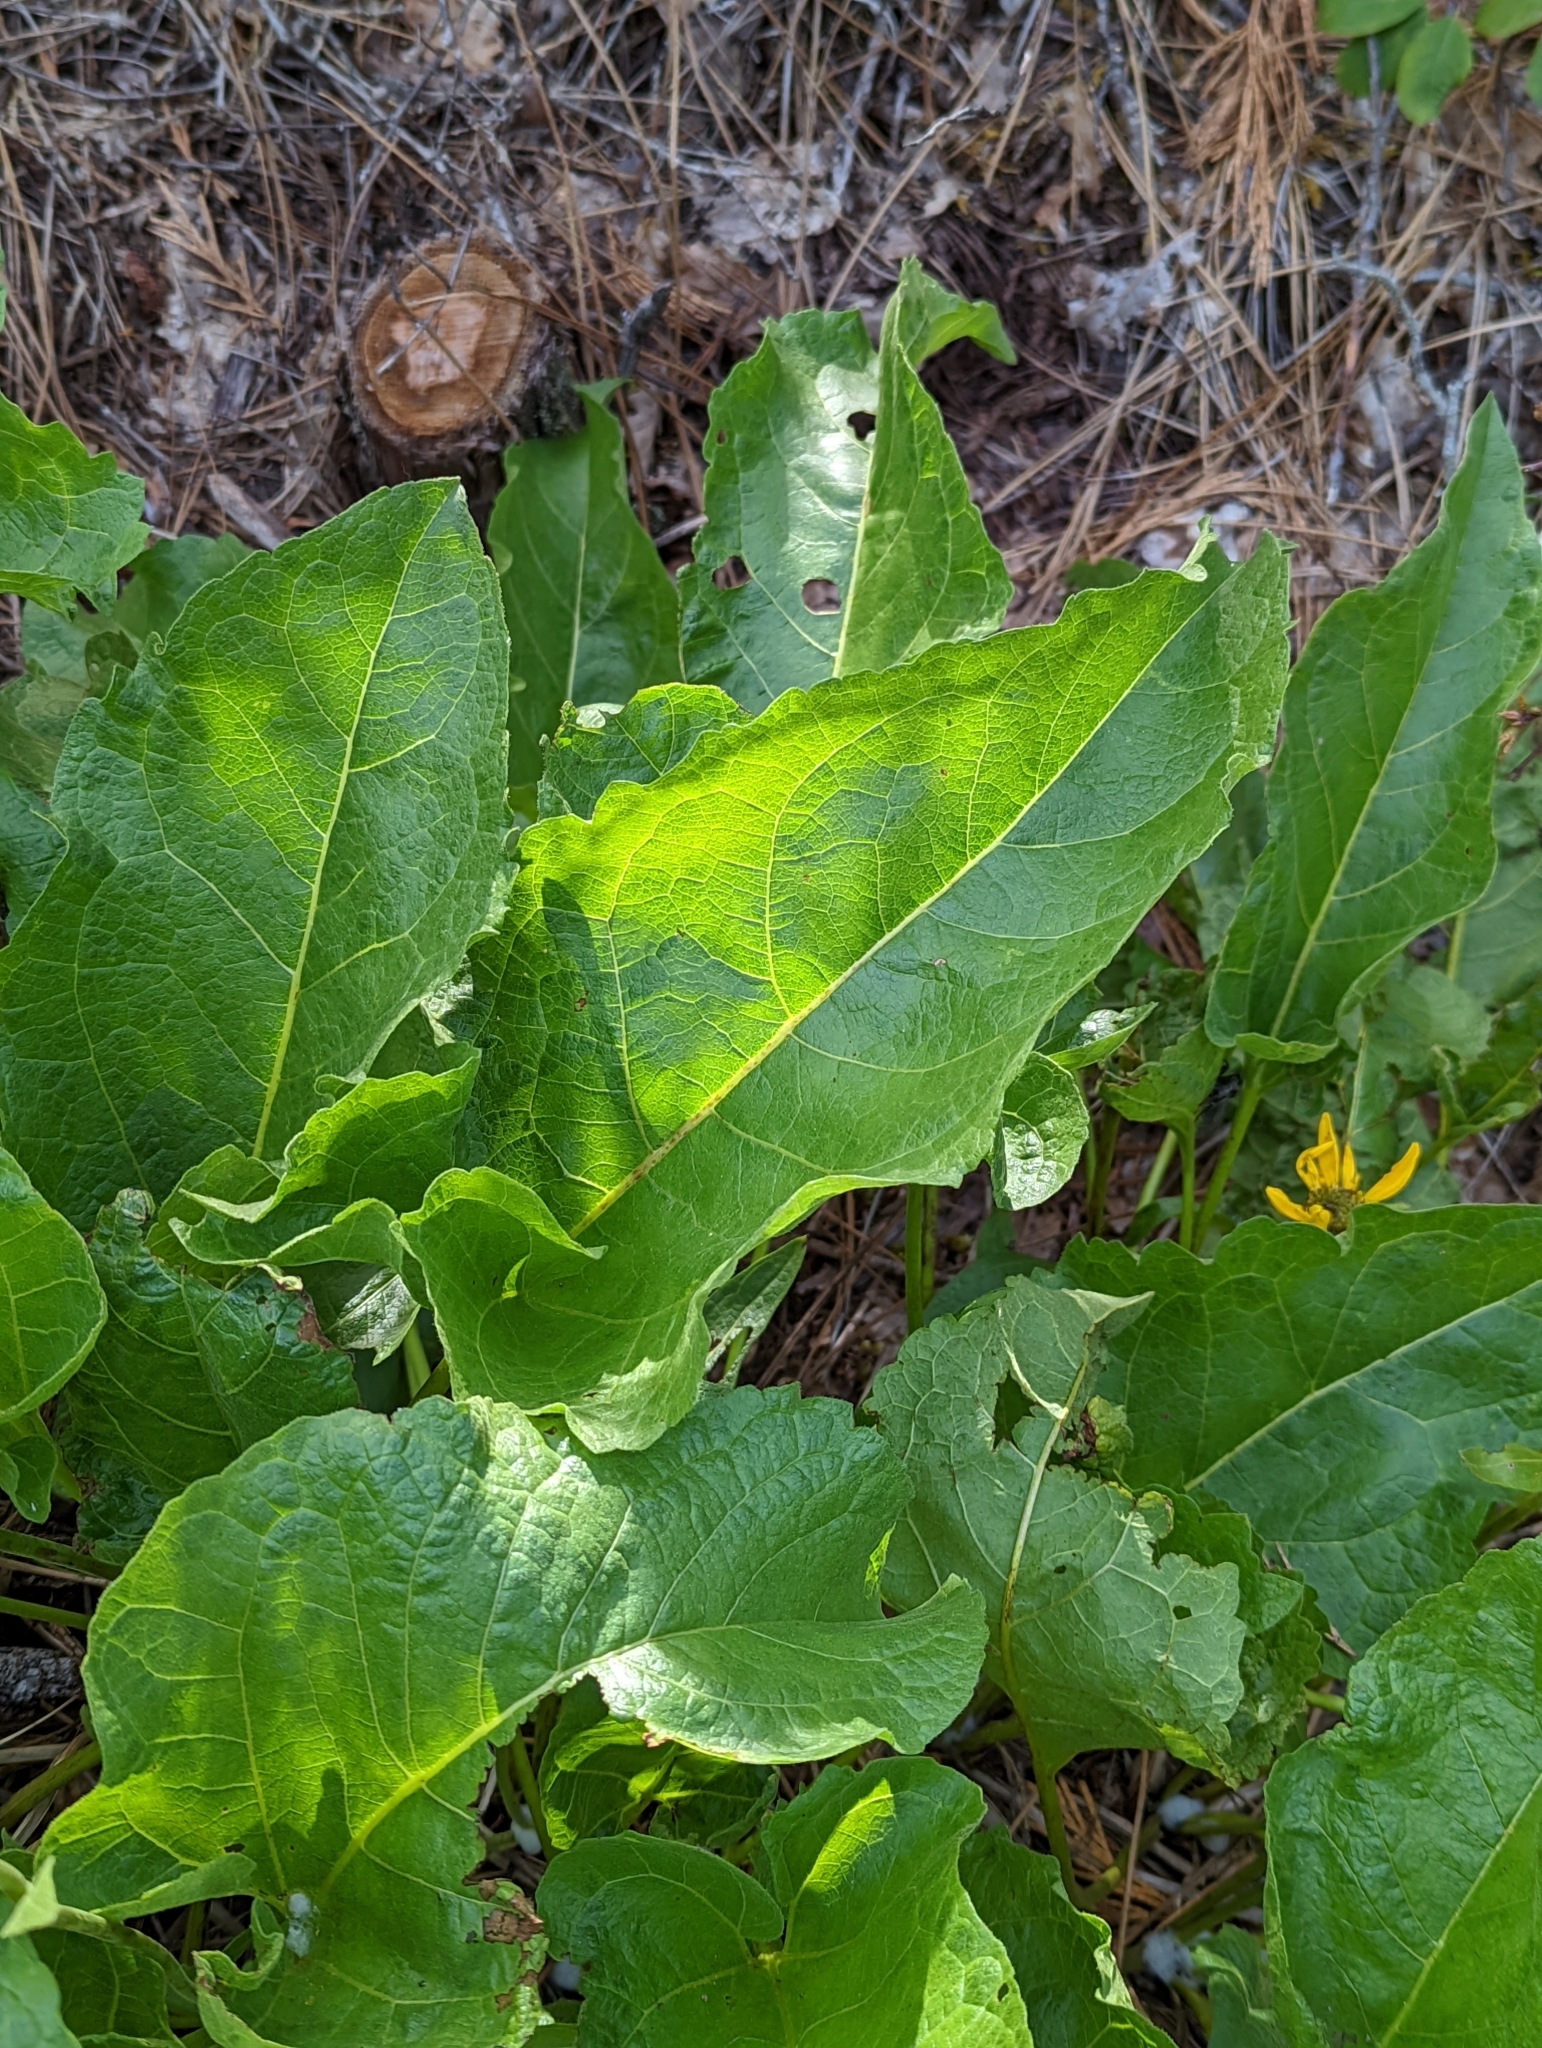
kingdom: Plantae
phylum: Tracheophyta
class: Magnoliopsida
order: Asterales
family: Asteraceae
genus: Balsamorhiza
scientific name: Balsamorhiza deltoidea
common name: Deltoid balsamroot
